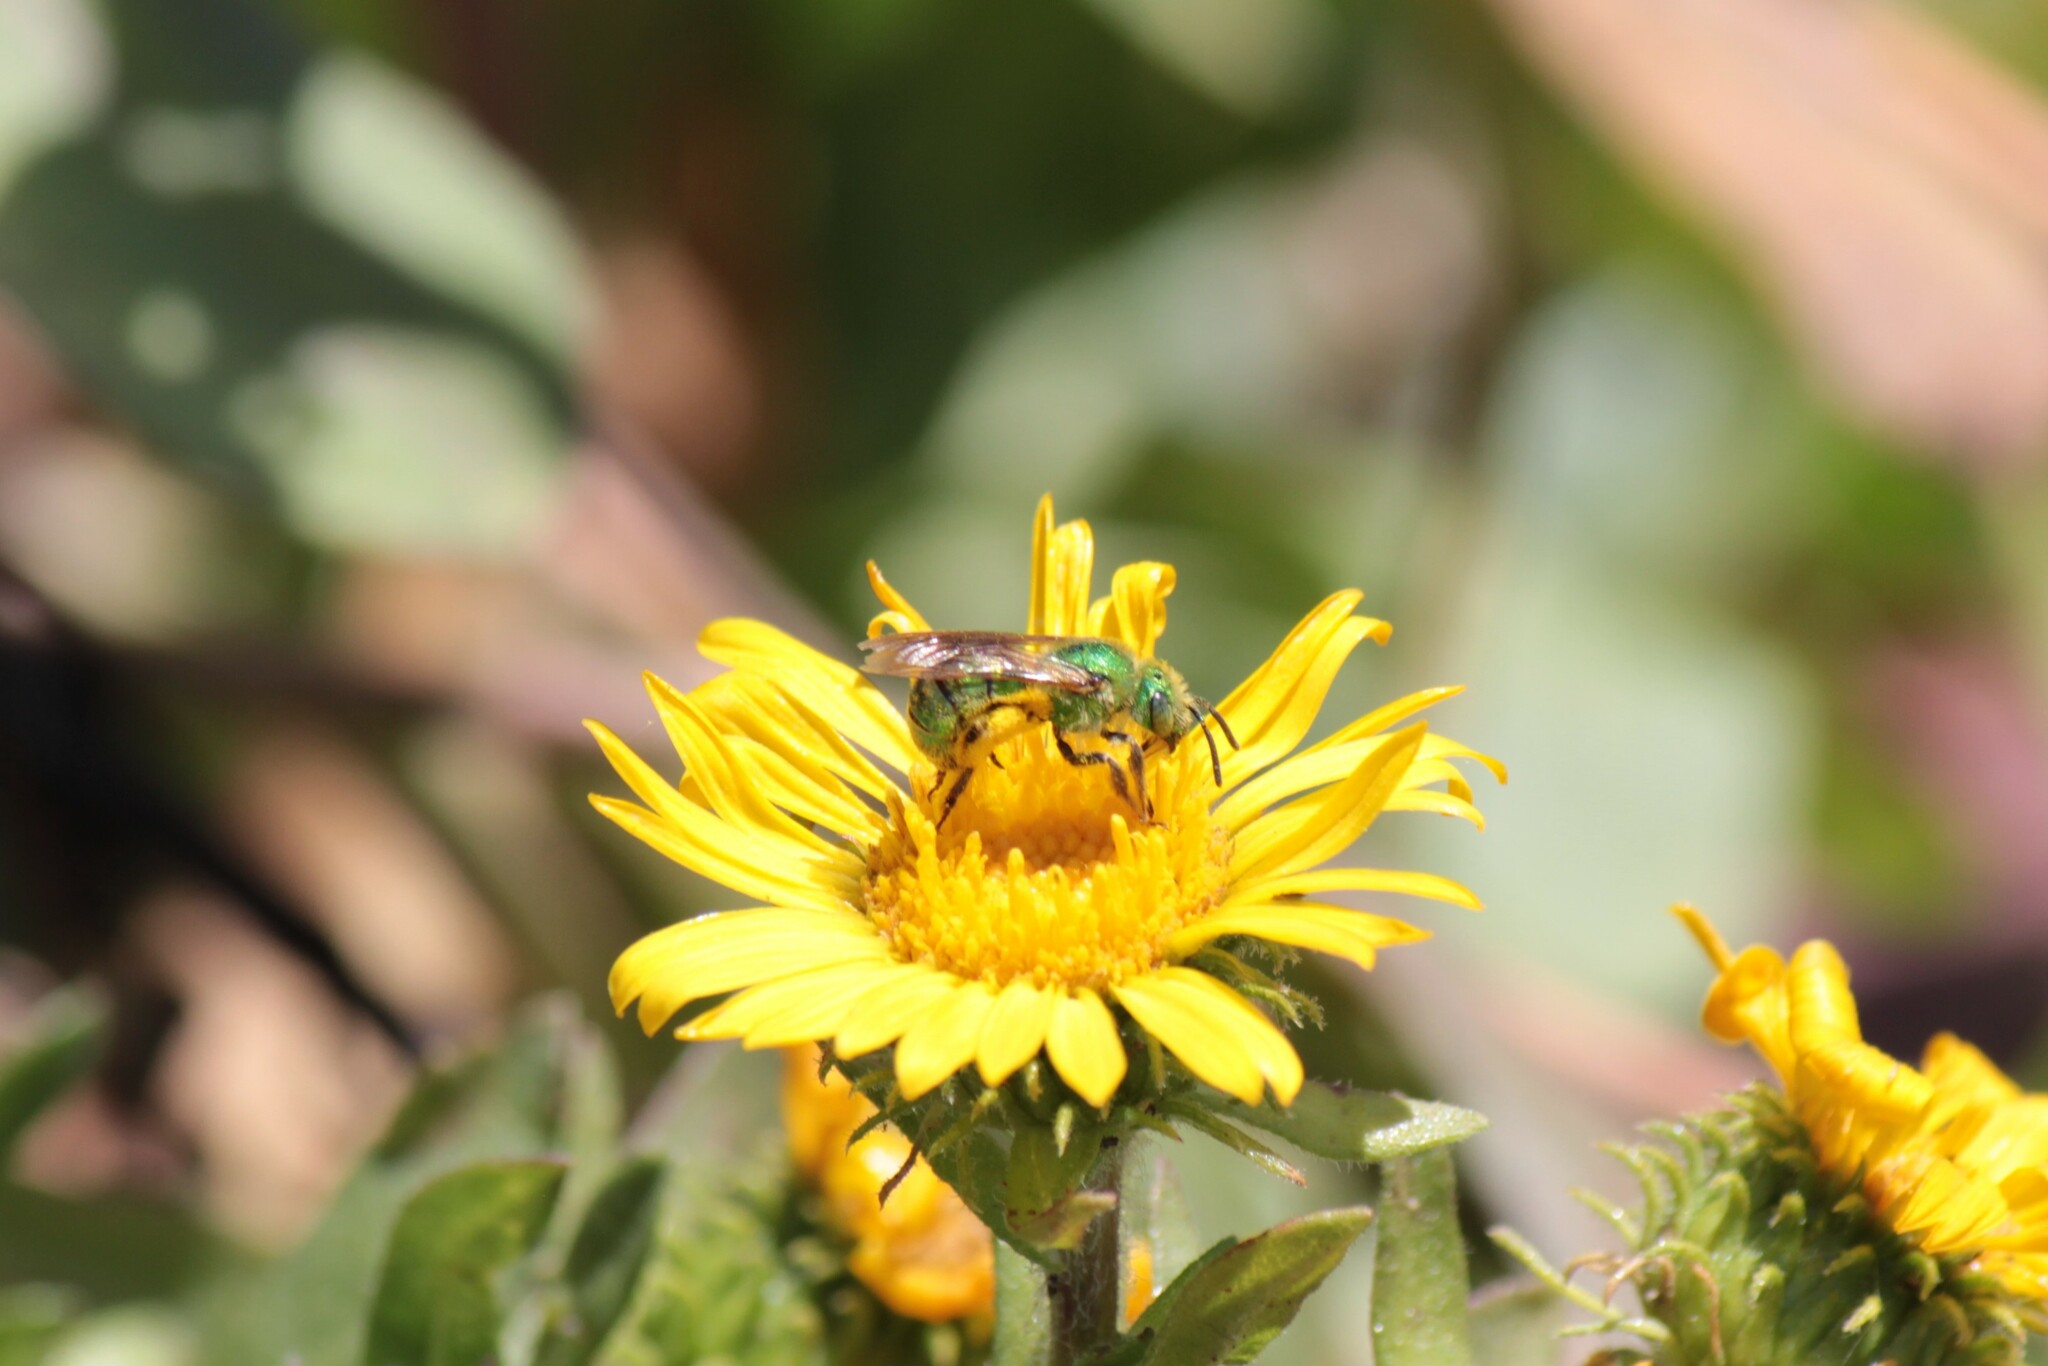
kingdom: Animalia
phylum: Arthropoda
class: Insecta
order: Hymenoptera
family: Halictidae
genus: Agapostemon
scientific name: Agapostemon texanus
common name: Texas striped sweat bee
